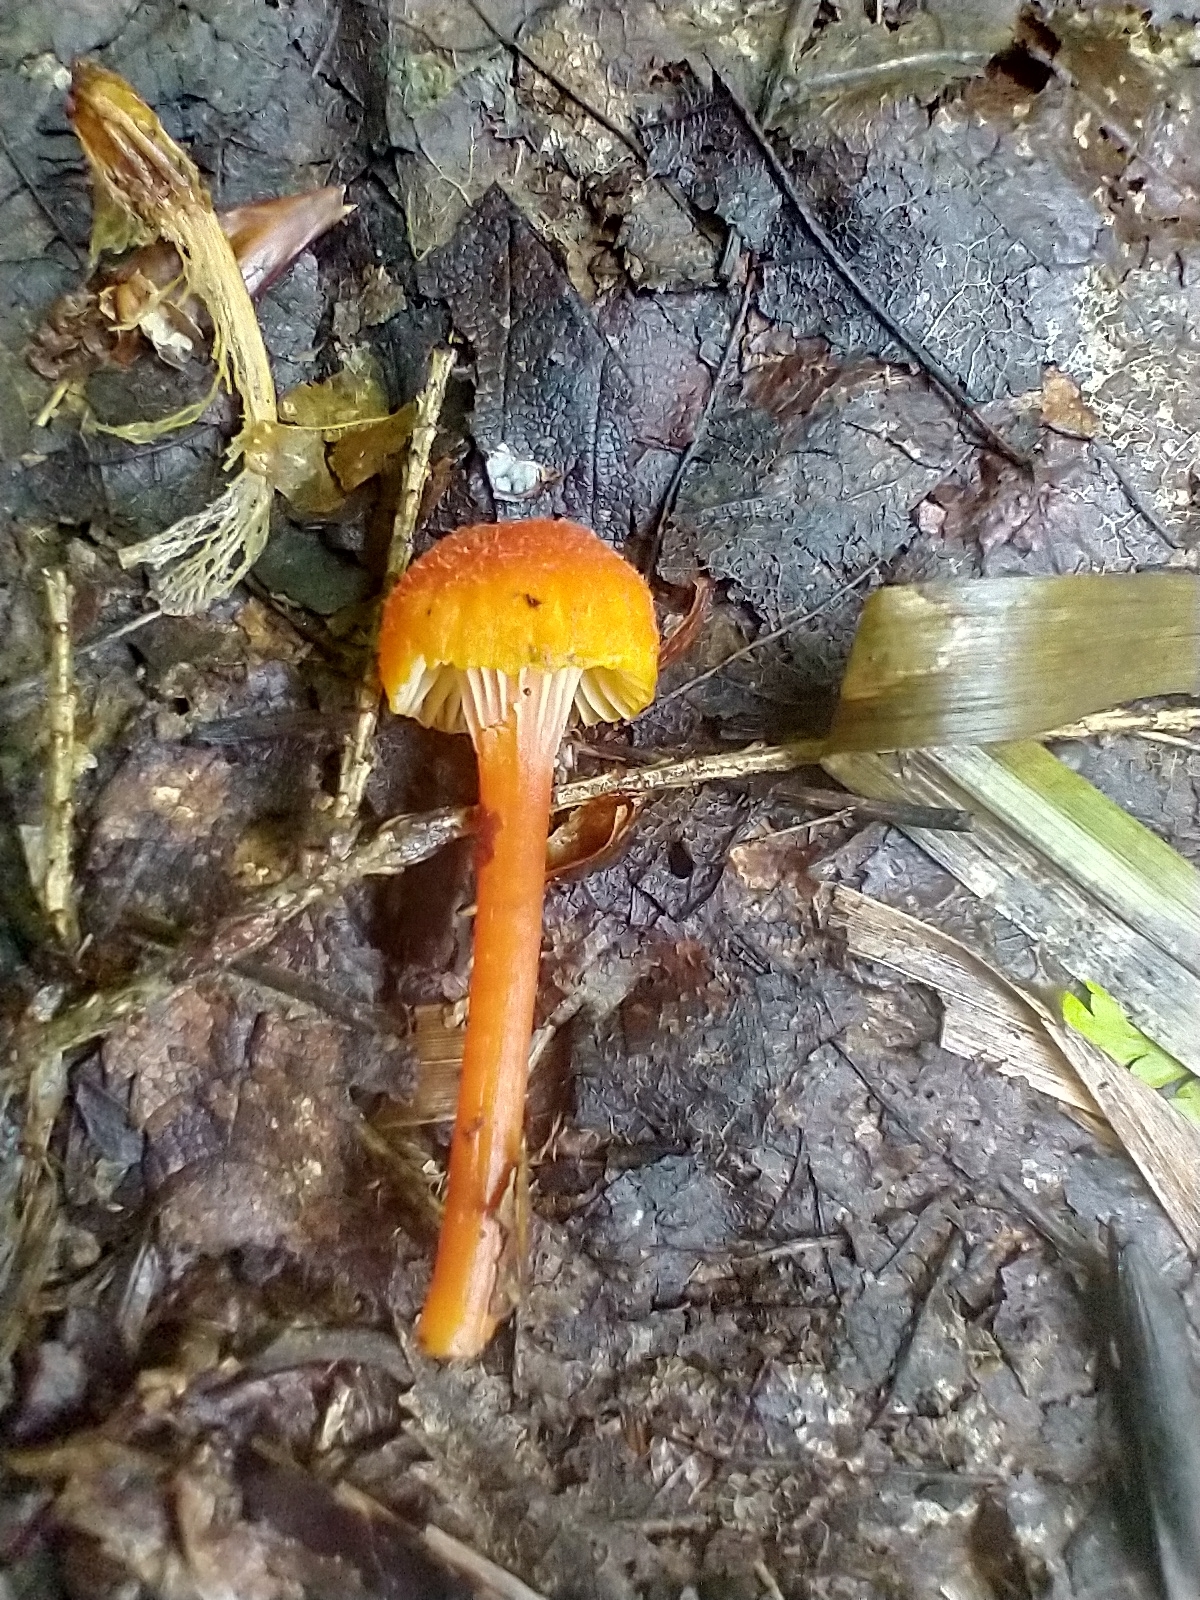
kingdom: Fungi
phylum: Basidiomycota
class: Agaricomycetes
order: Agaricales
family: Hygrophoraceae
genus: Hygrocybe
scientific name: Hygrocybe cantharellus
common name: Goblet waxcap
